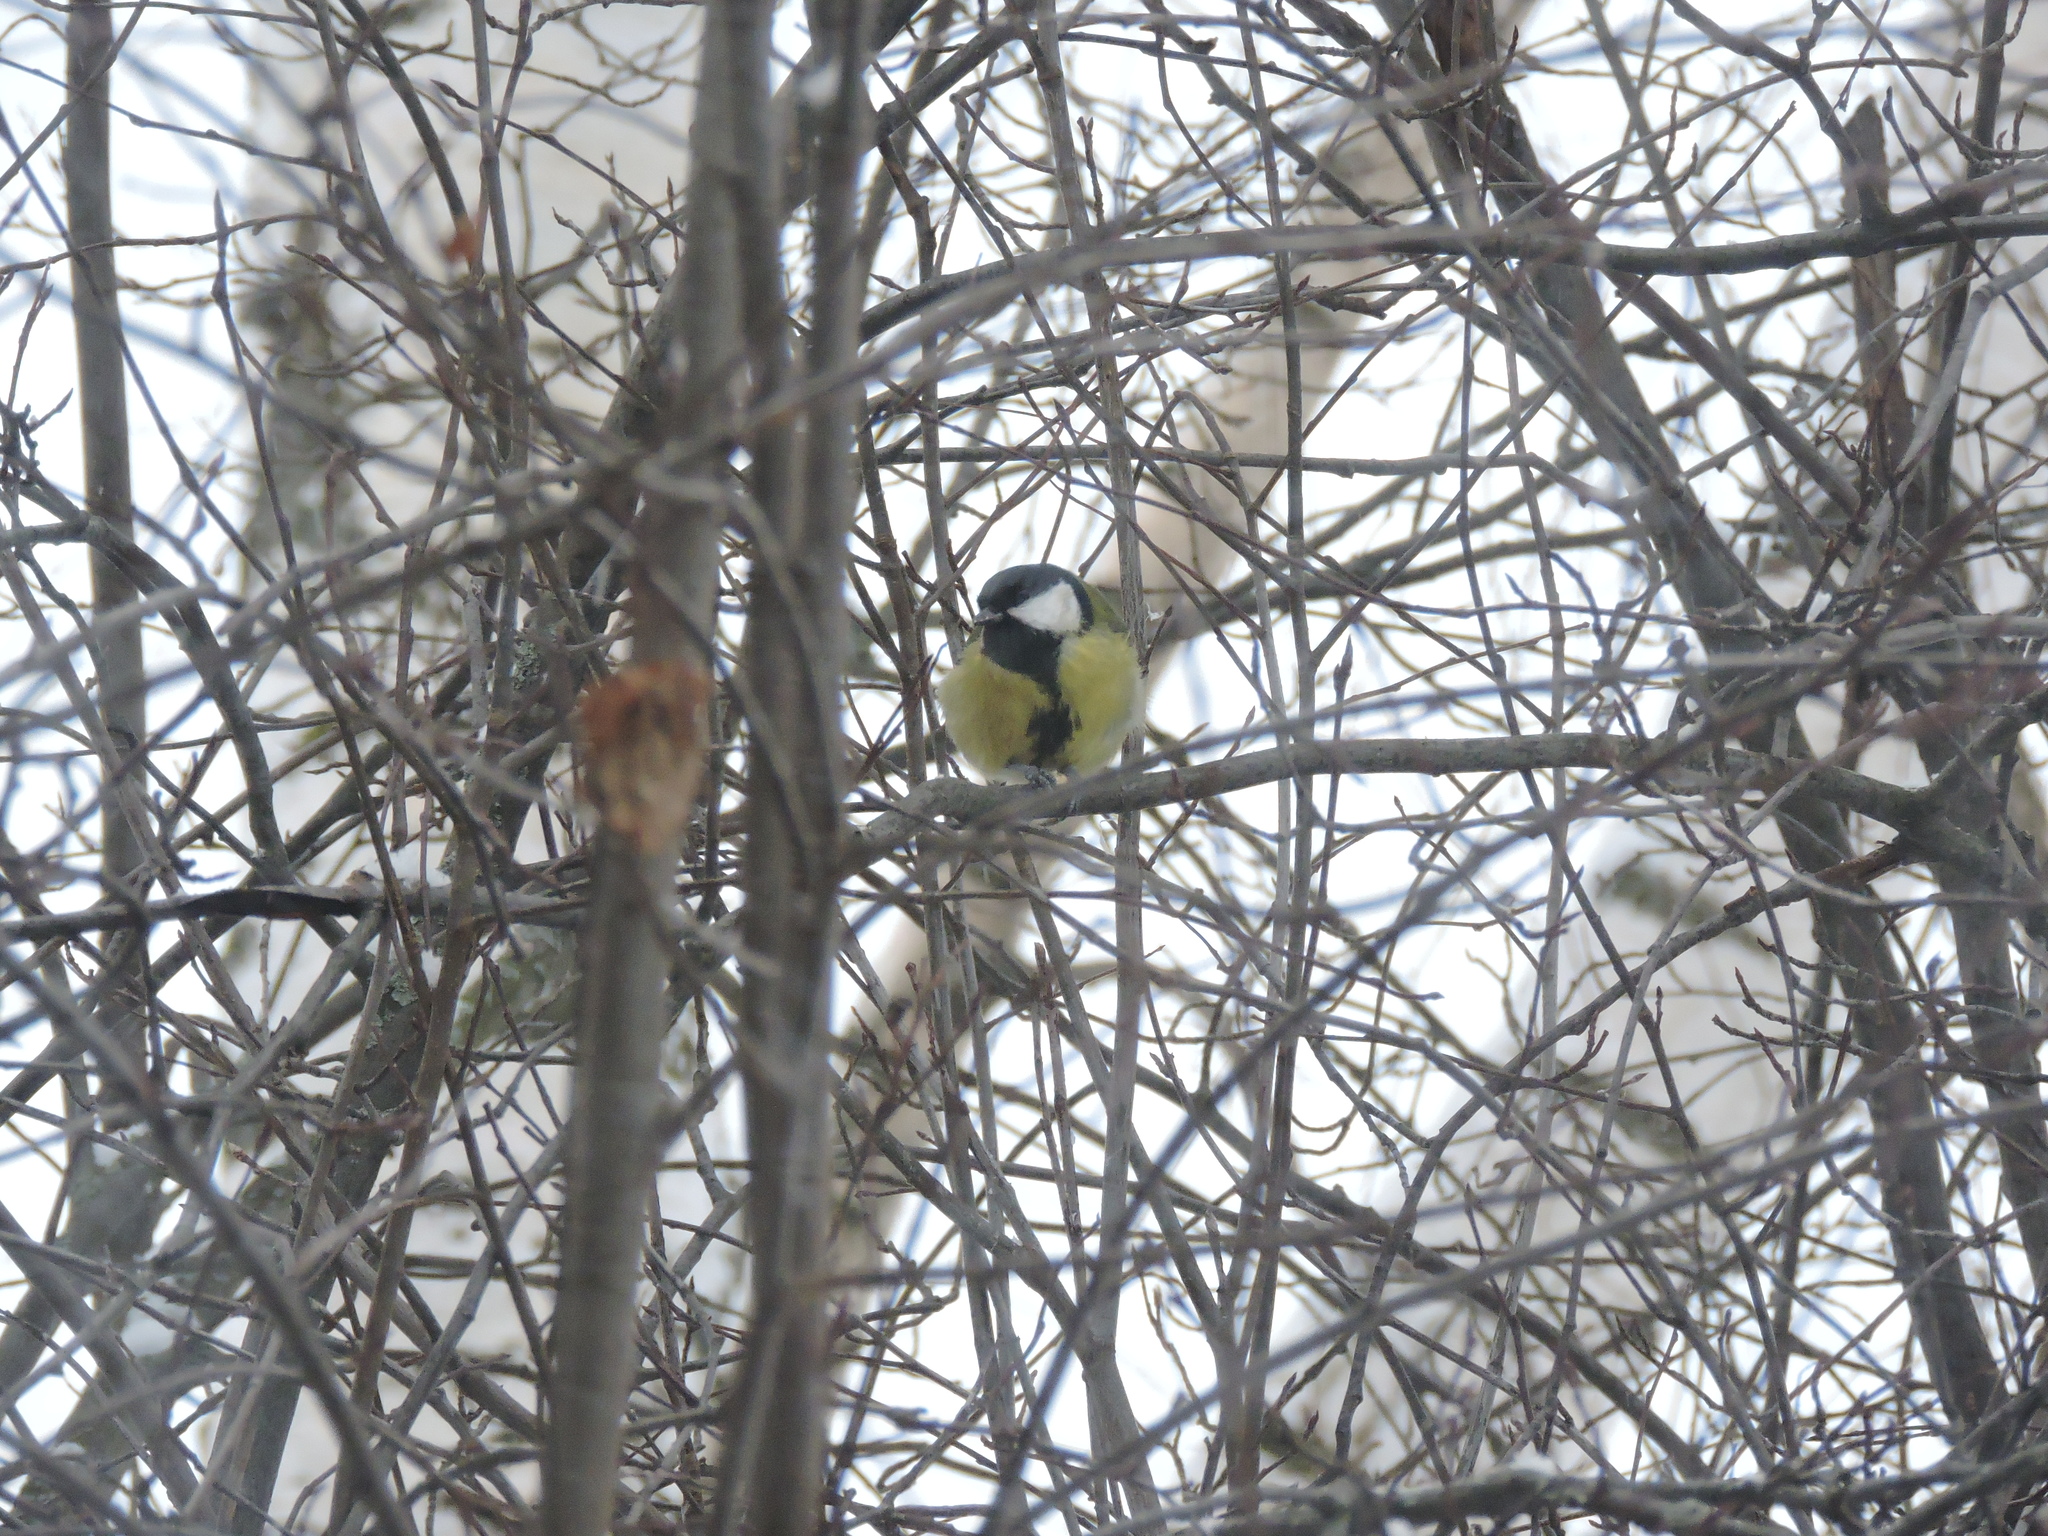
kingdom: Animalia
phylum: Chordata
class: Aves
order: Passeriformes
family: Paridae
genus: Parus
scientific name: Parus major
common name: Great tit
